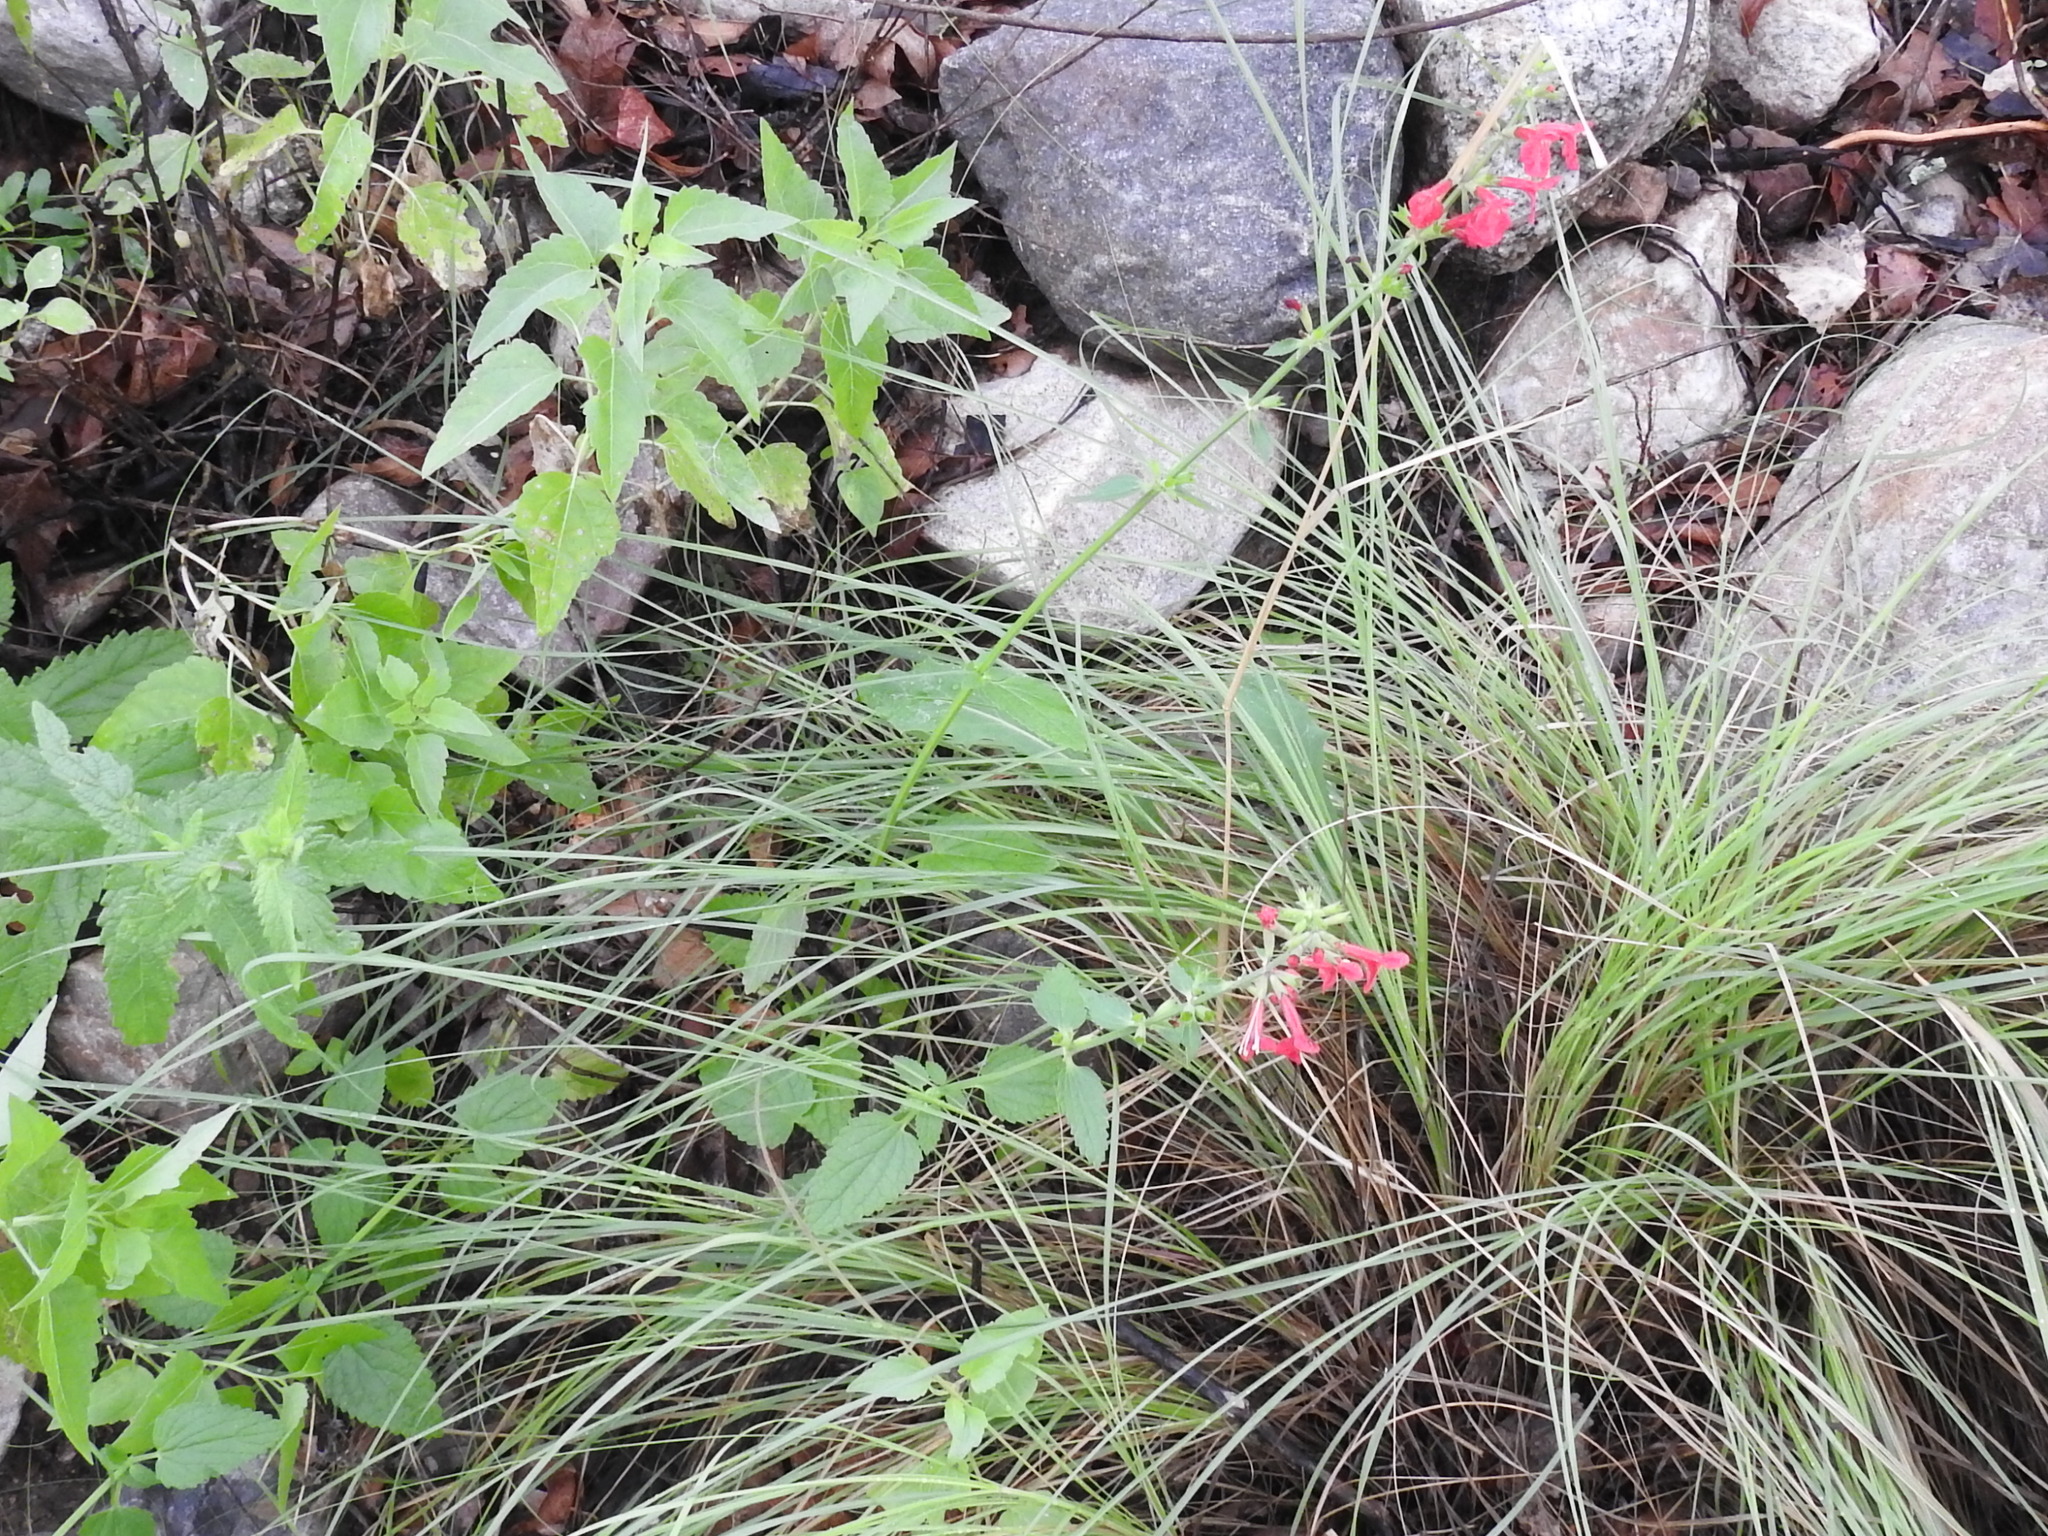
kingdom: Plantae
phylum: Tracheophyta
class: Magnoliopsida
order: Lamiales
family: Lamiaceae
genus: Stachys
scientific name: Stachys coccinea
